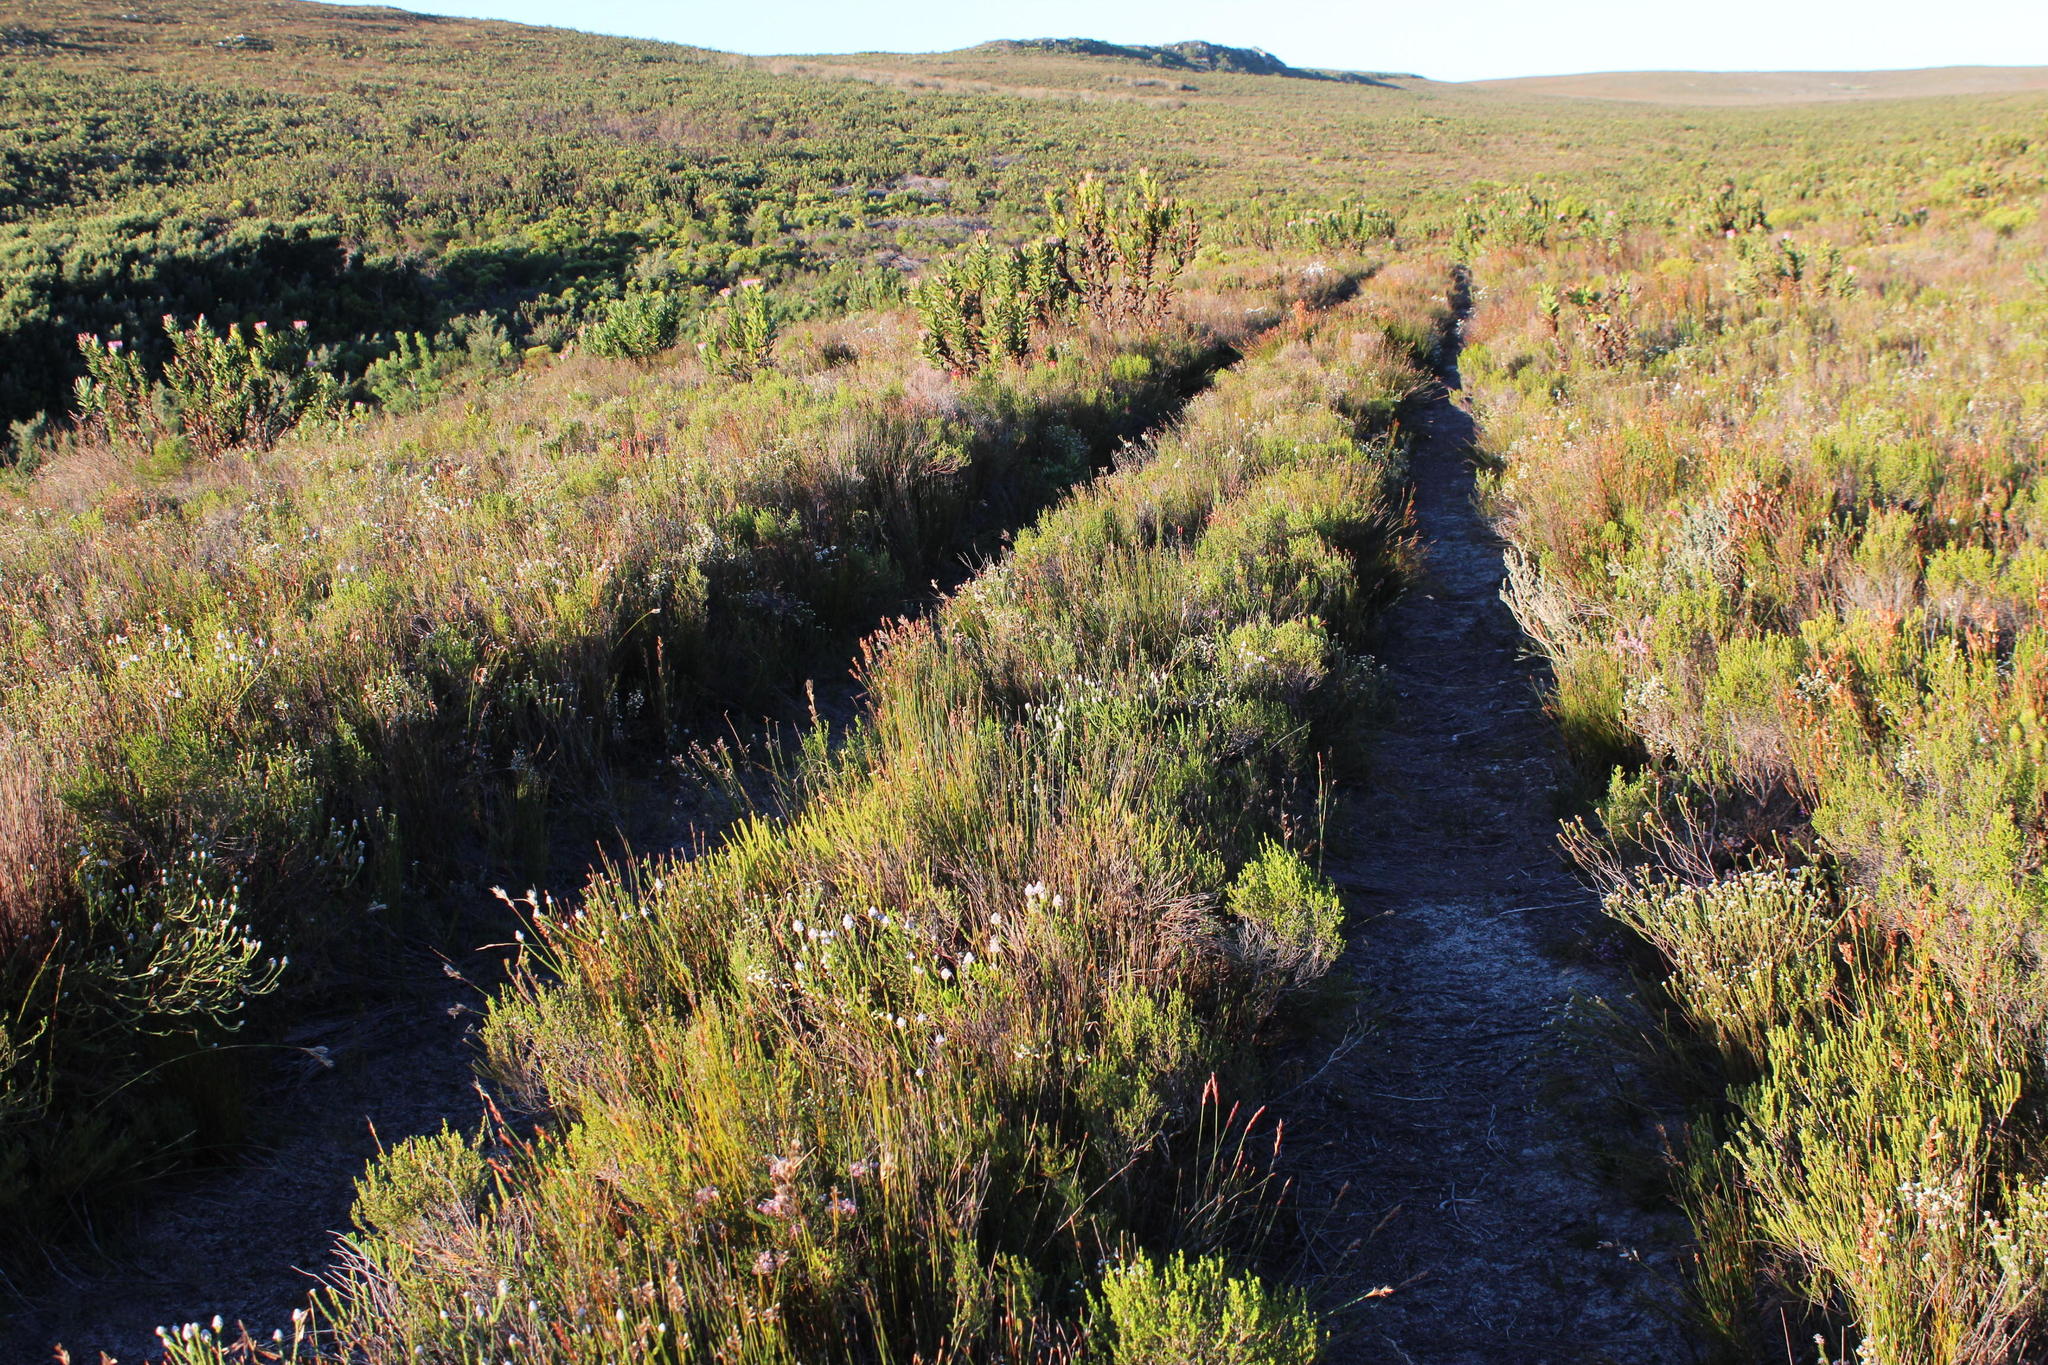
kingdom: Plantae
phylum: Tracheophyta
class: Magnoliopsida
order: Proteales
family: Proteaceae
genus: Spatalla
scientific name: Spatalla ericoides
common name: Erica-leaf spoon
